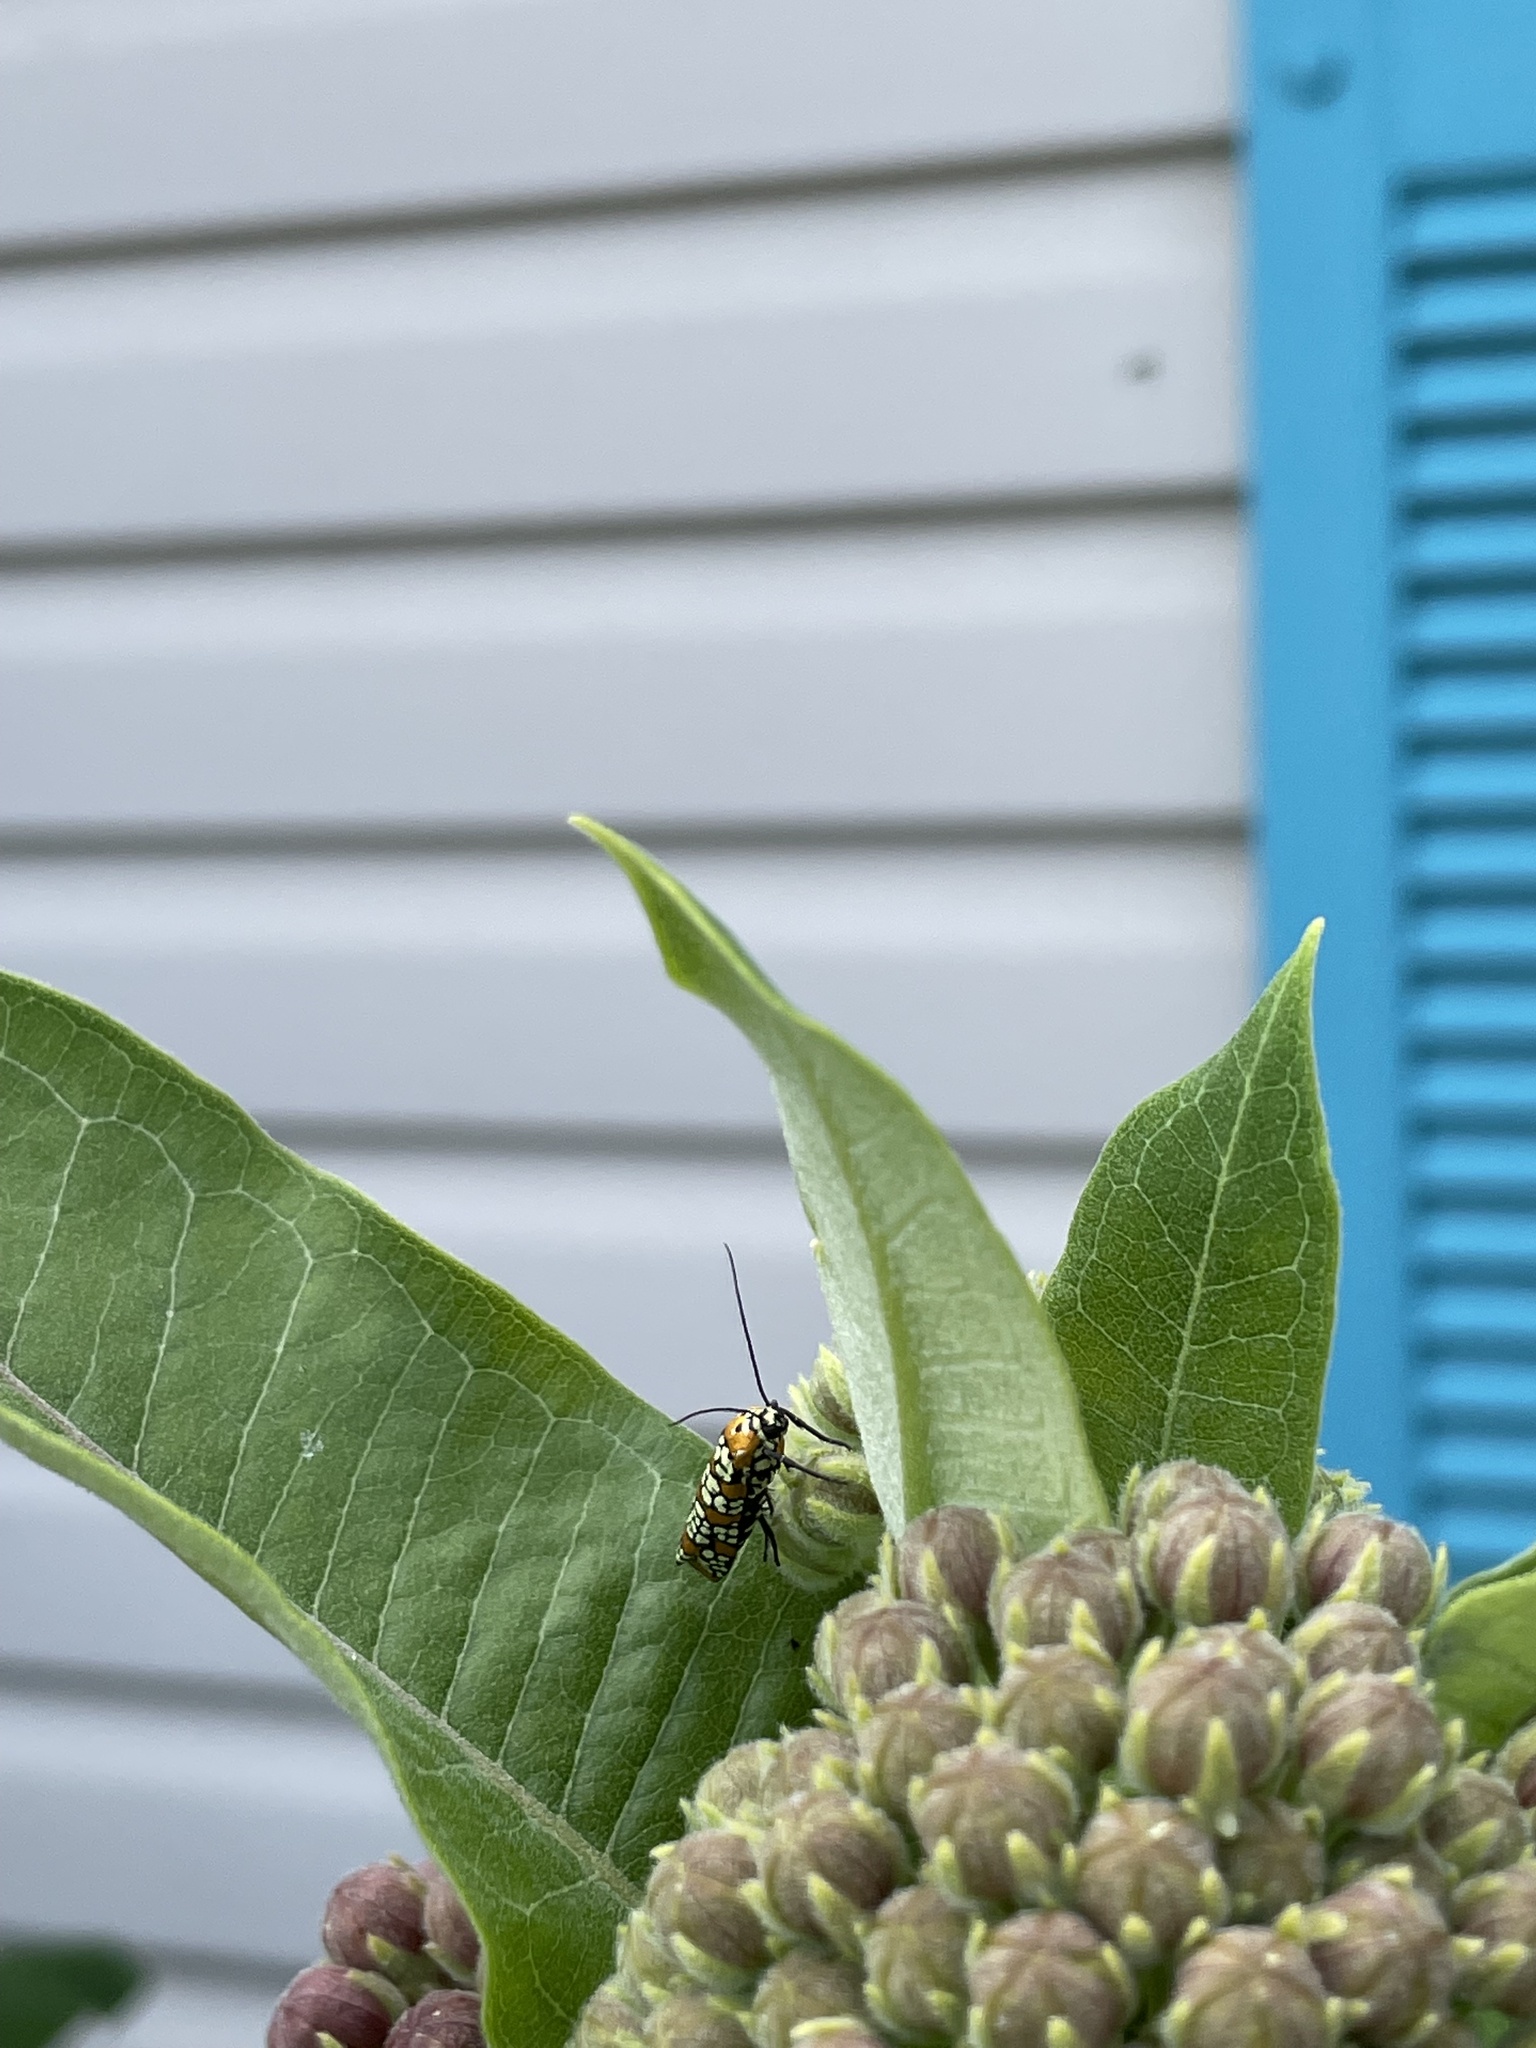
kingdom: Animalia
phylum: Arthropoda
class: Insecta
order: Lepidoptera
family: Attevidae
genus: Atteva
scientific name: Atteva punctella
